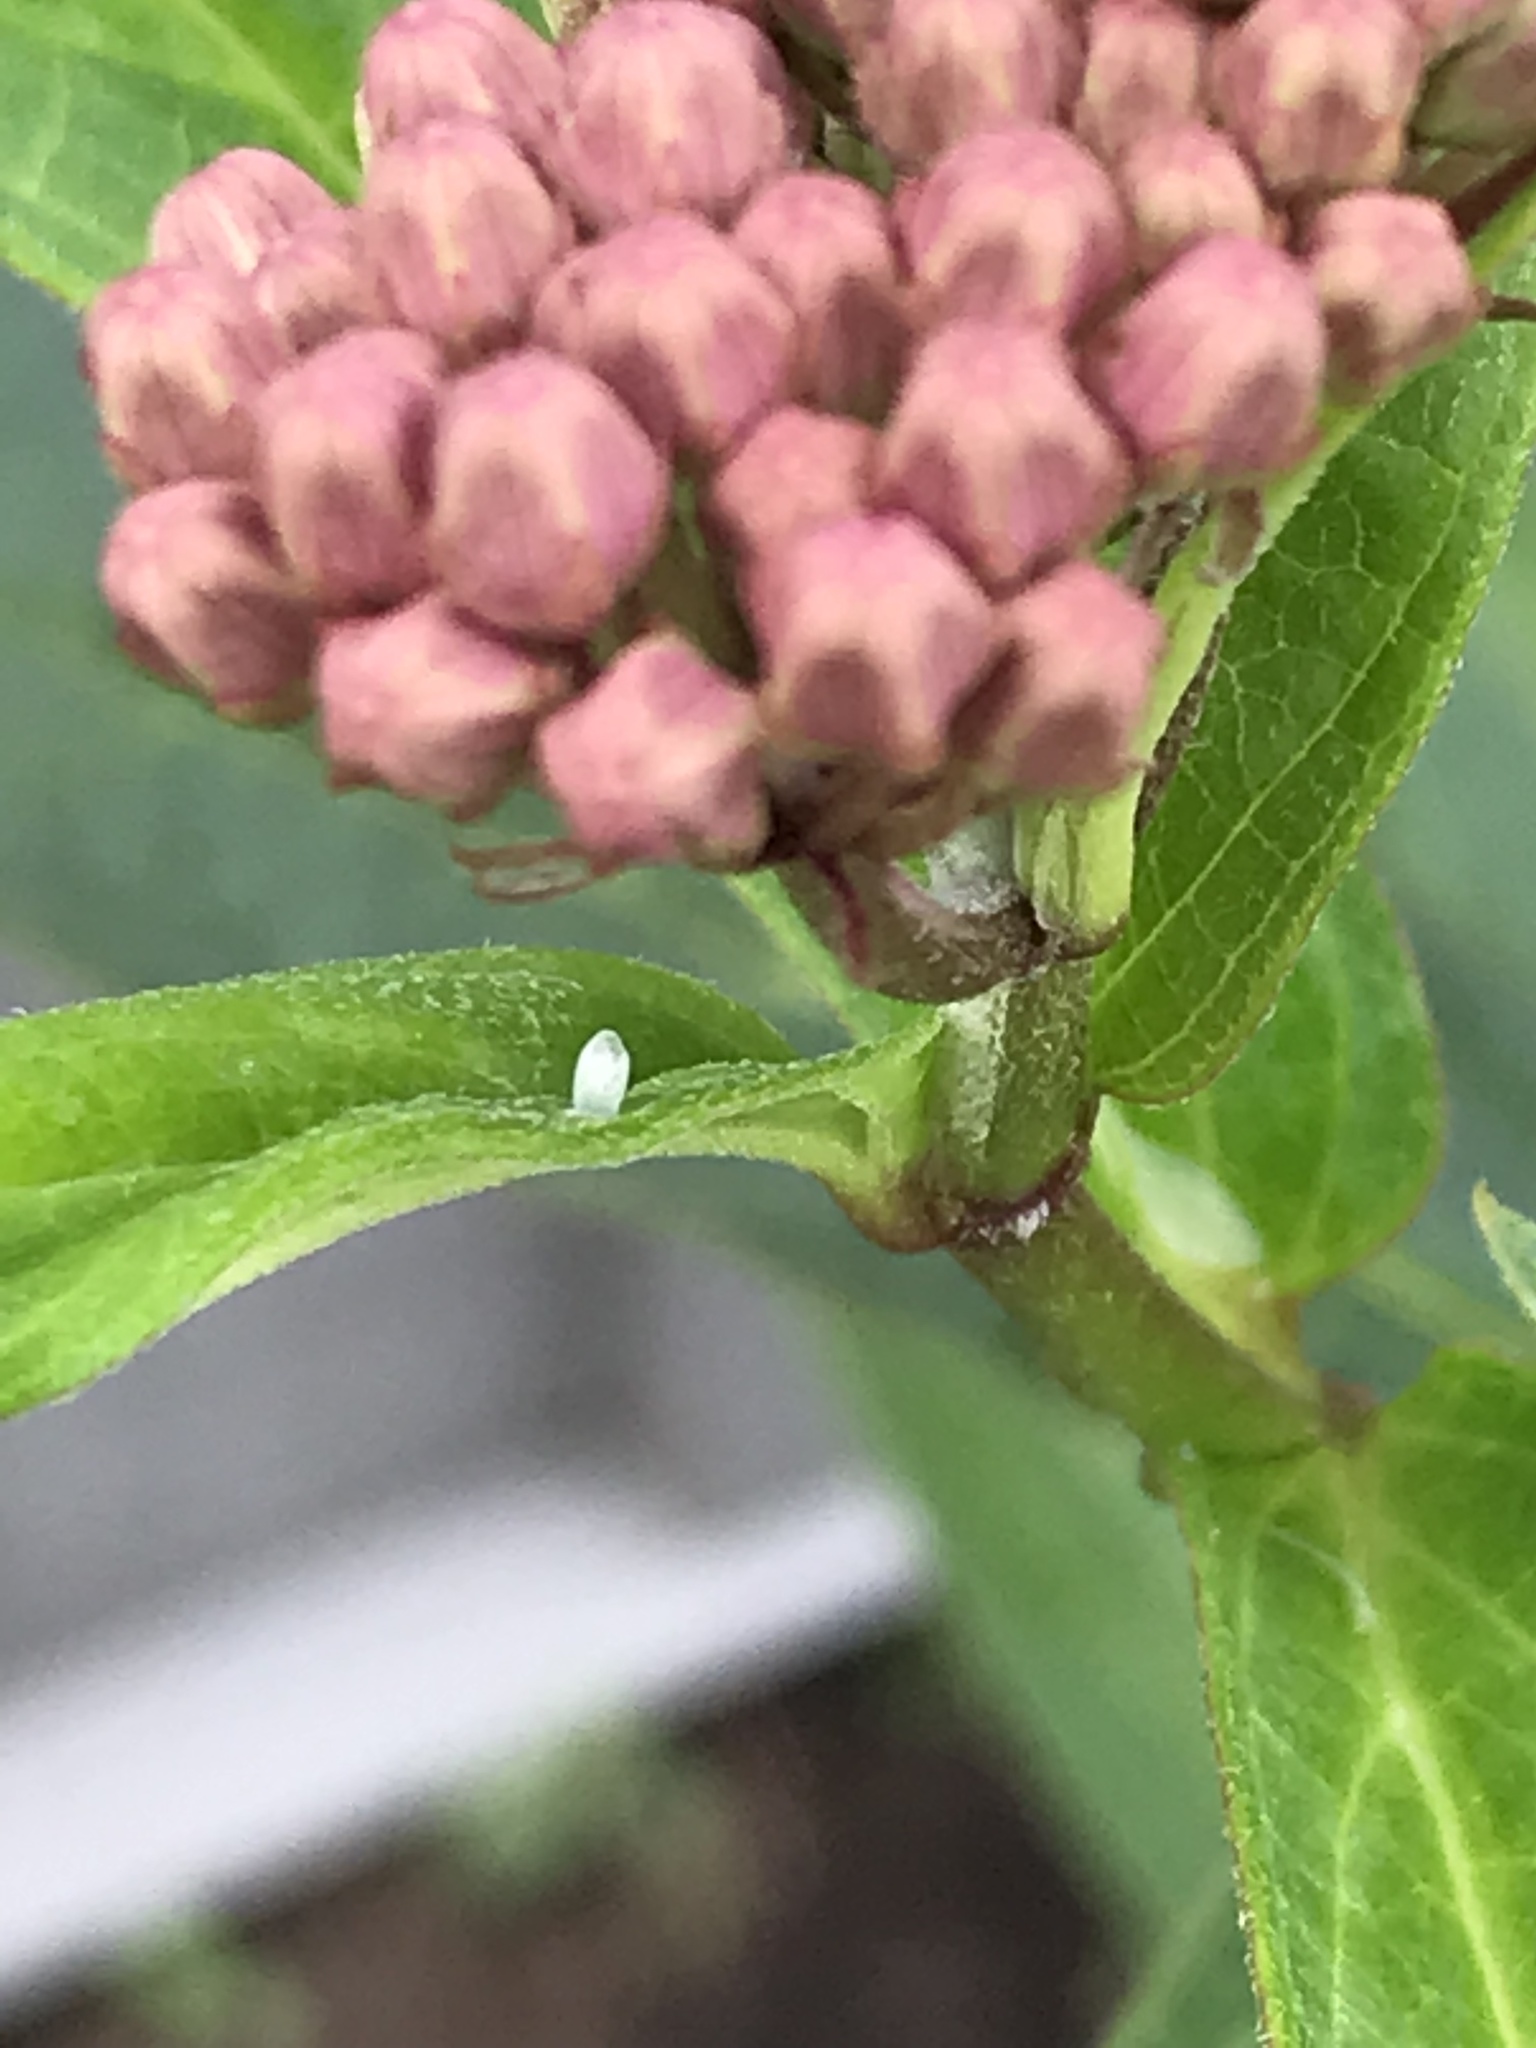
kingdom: Animalia
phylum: Arthropoda
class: Insecta
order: Lepidoptera
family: Nymphalidae
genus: Danaus
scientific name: Danaus plexippus
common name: Monarch
